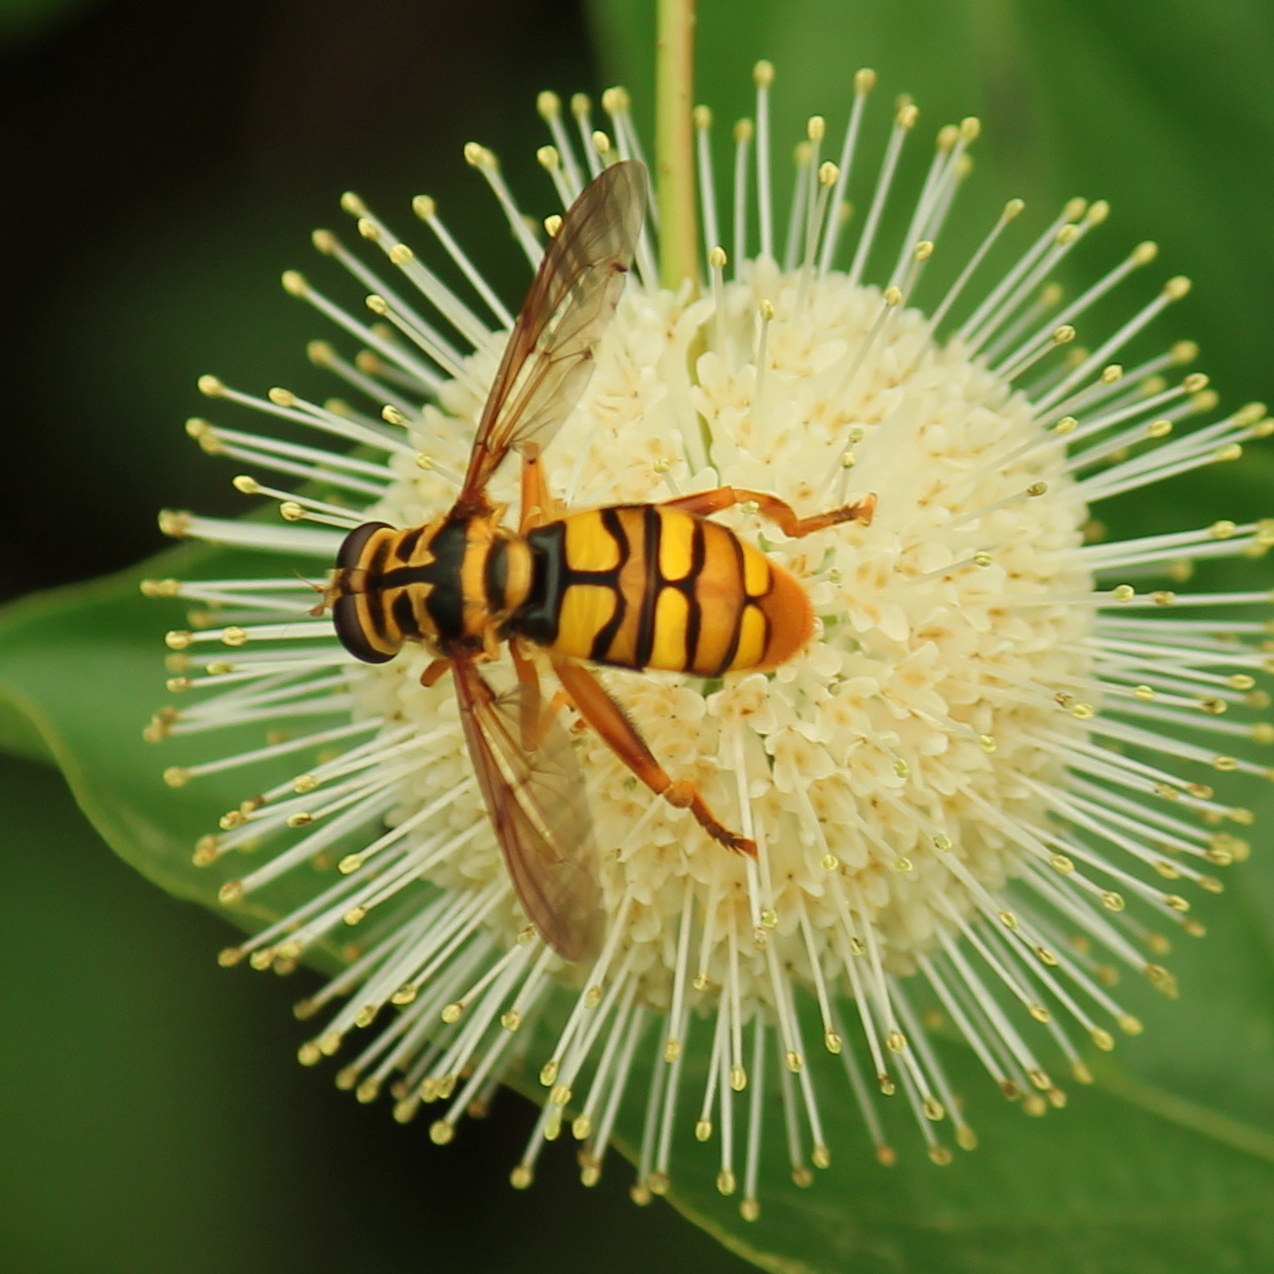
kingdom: Animalia
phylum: Arthropoda
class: Insecta
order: Diptera
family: Syrphidae
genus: Milesia
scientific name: Milesia virginiensis
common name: Virginia giant
